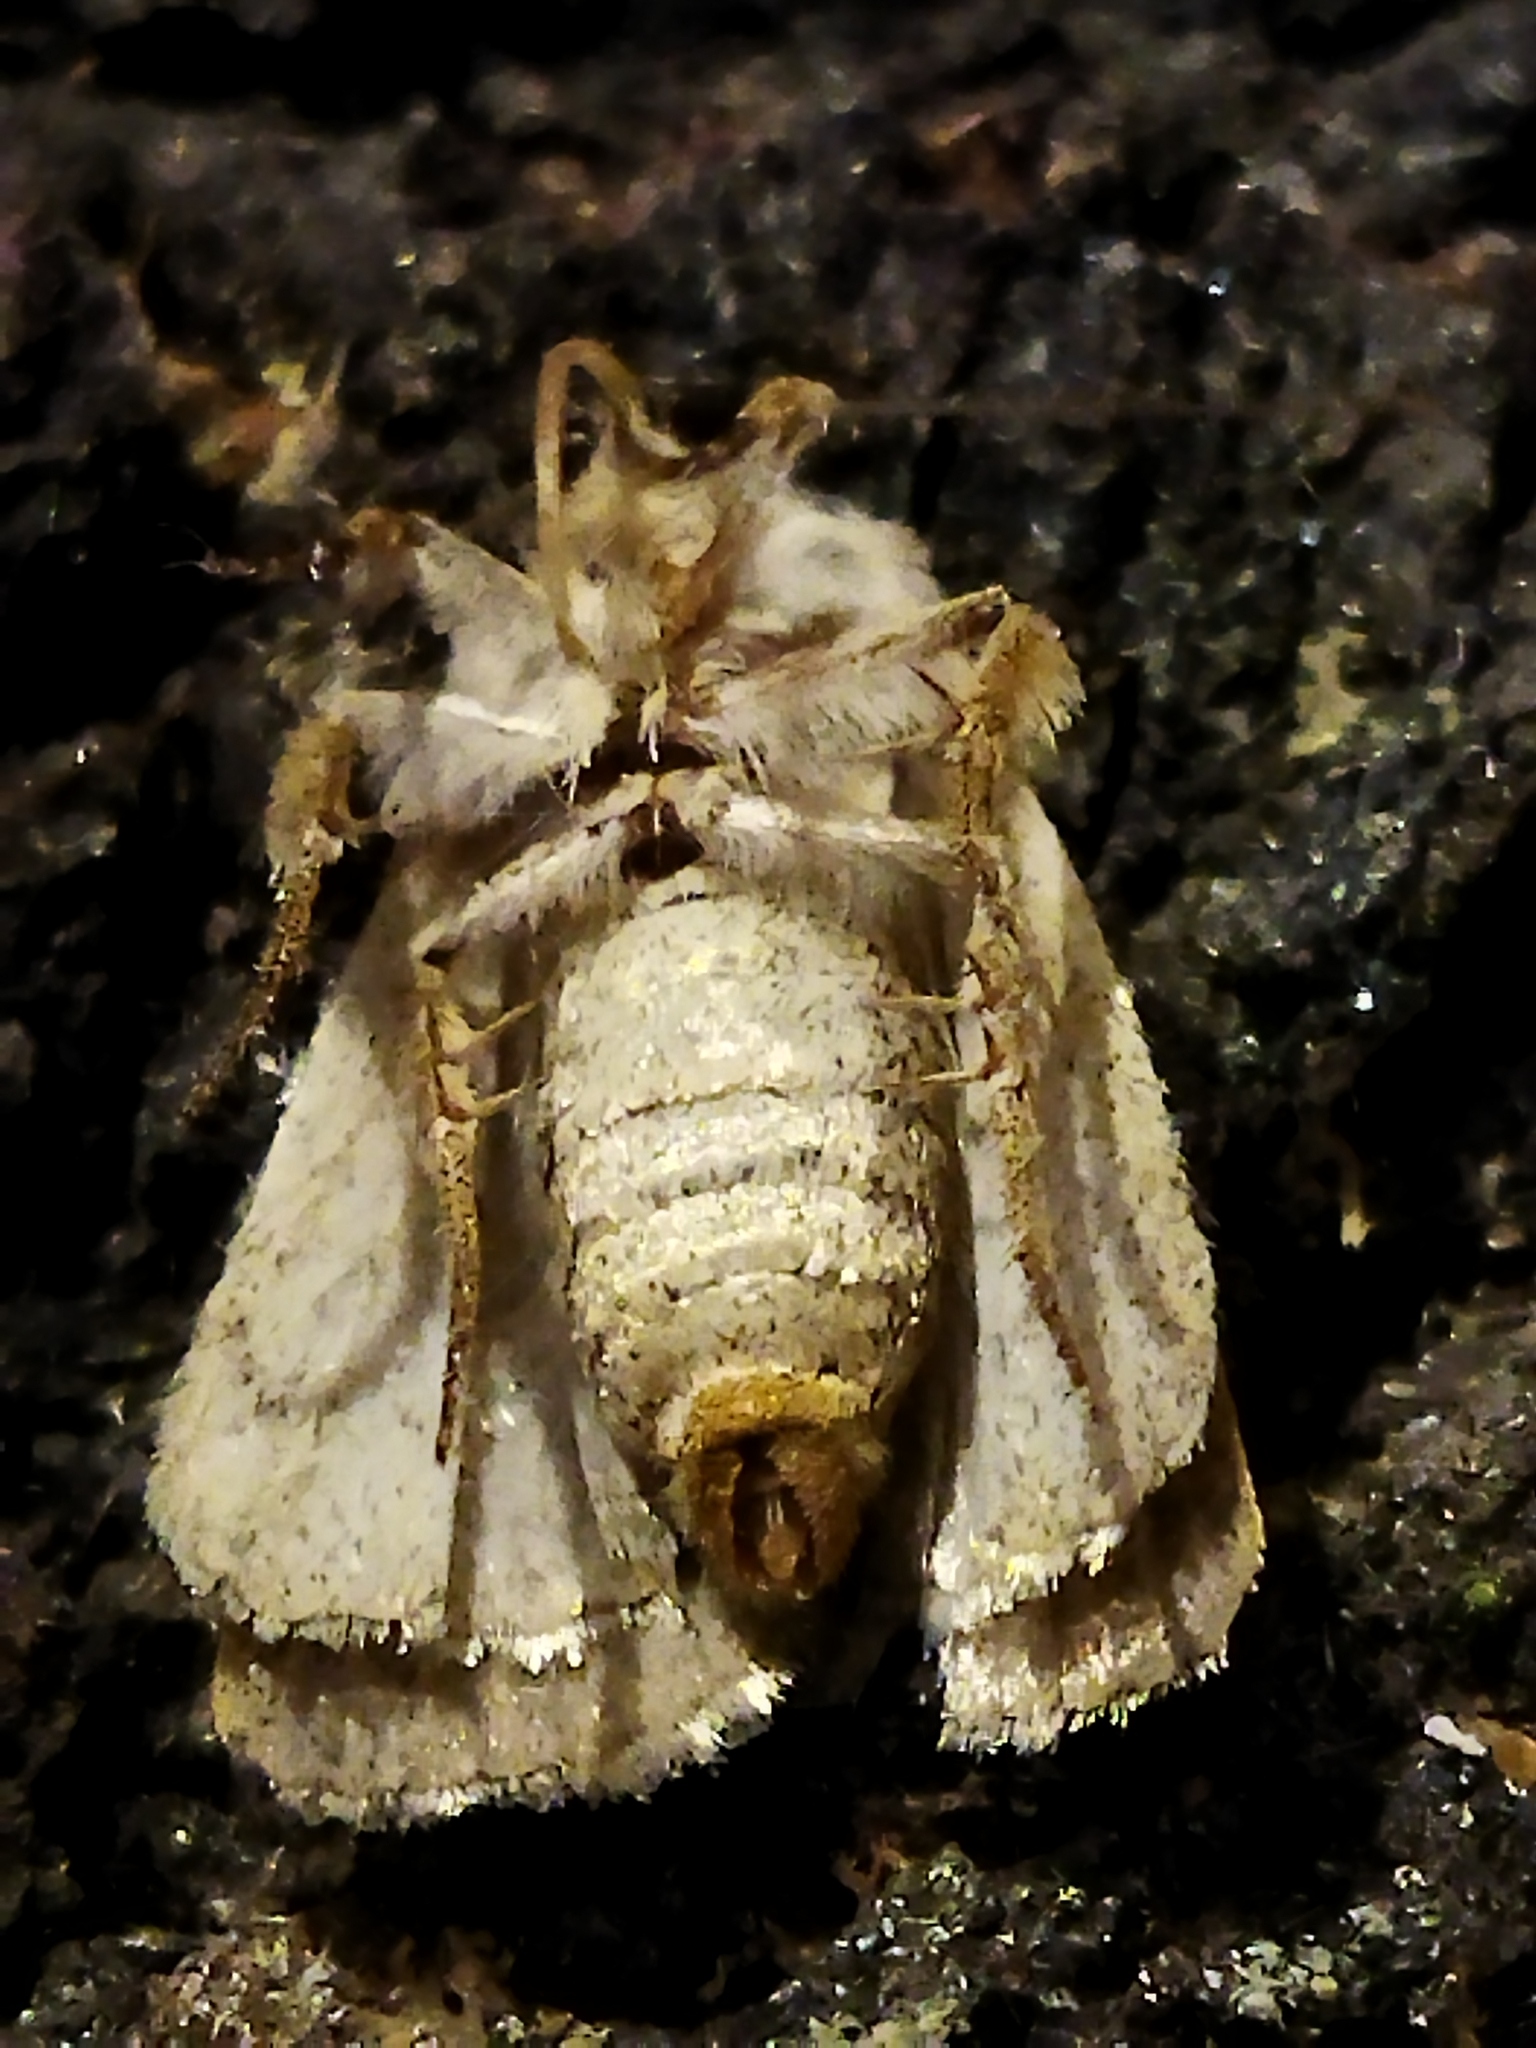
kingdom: Animalia
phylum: Arthropoda
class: Insecta
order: Lepidoptera
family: Noctuidae
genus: Caradrina
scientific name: Caradrina aspersa
